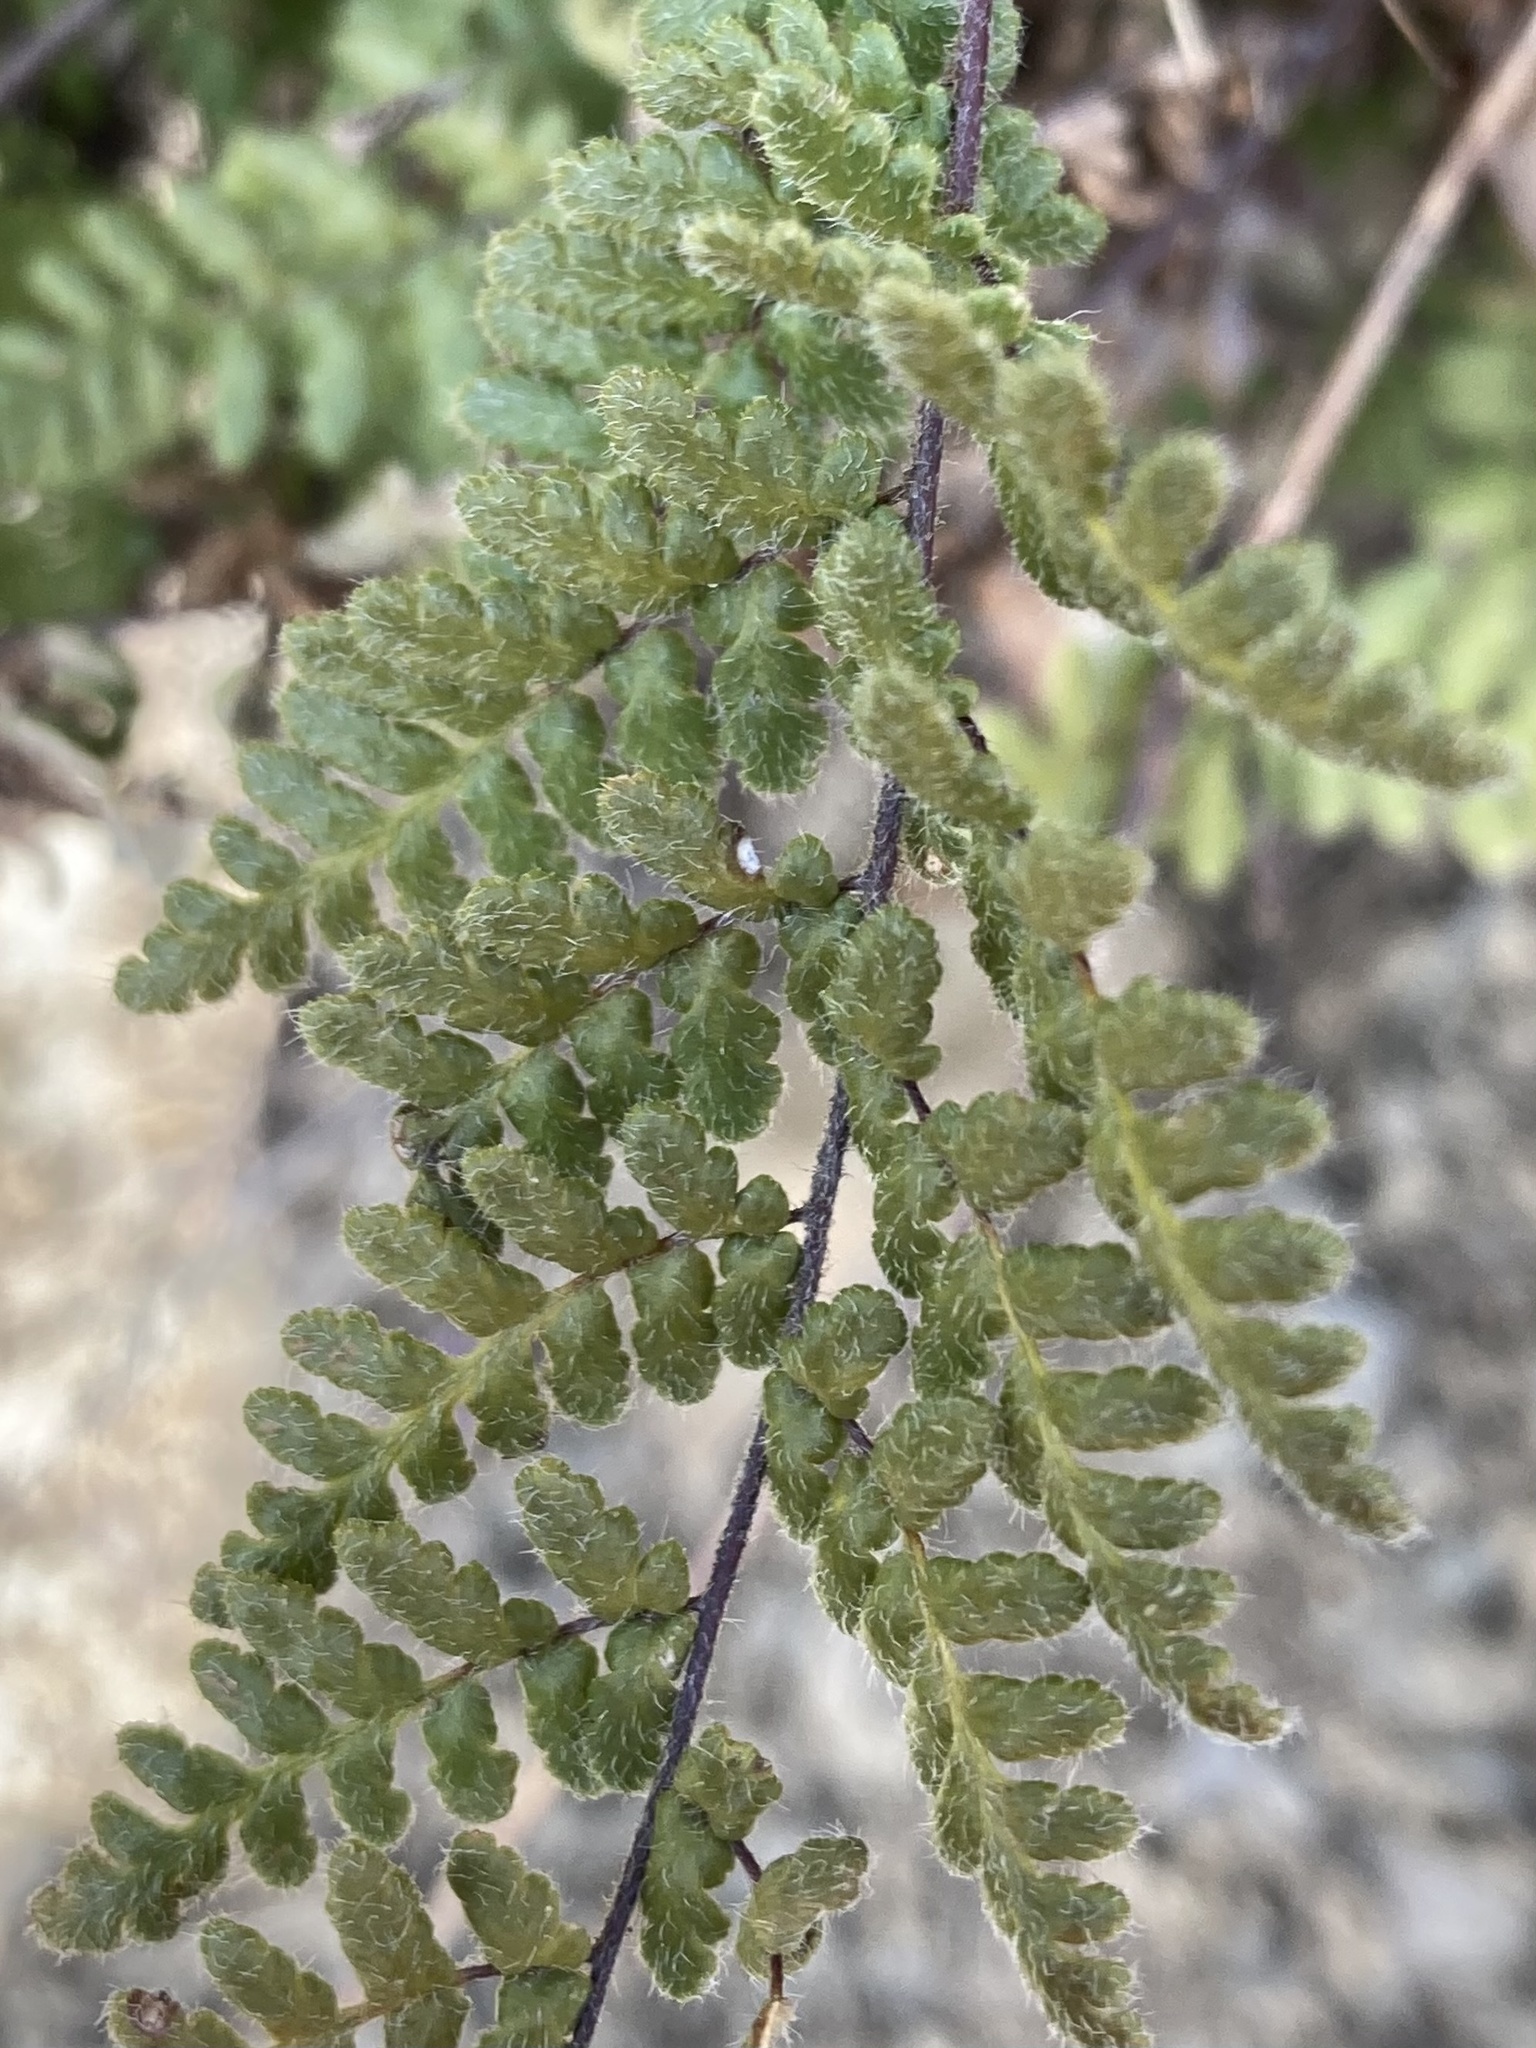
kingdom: Plantae
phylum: Tracheophyta
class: Polypodiopsida
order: Polypodiales
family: Pteridaceae
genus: Myriopteris
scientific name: Myriopteris lanosa
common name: Hairy lip fern
